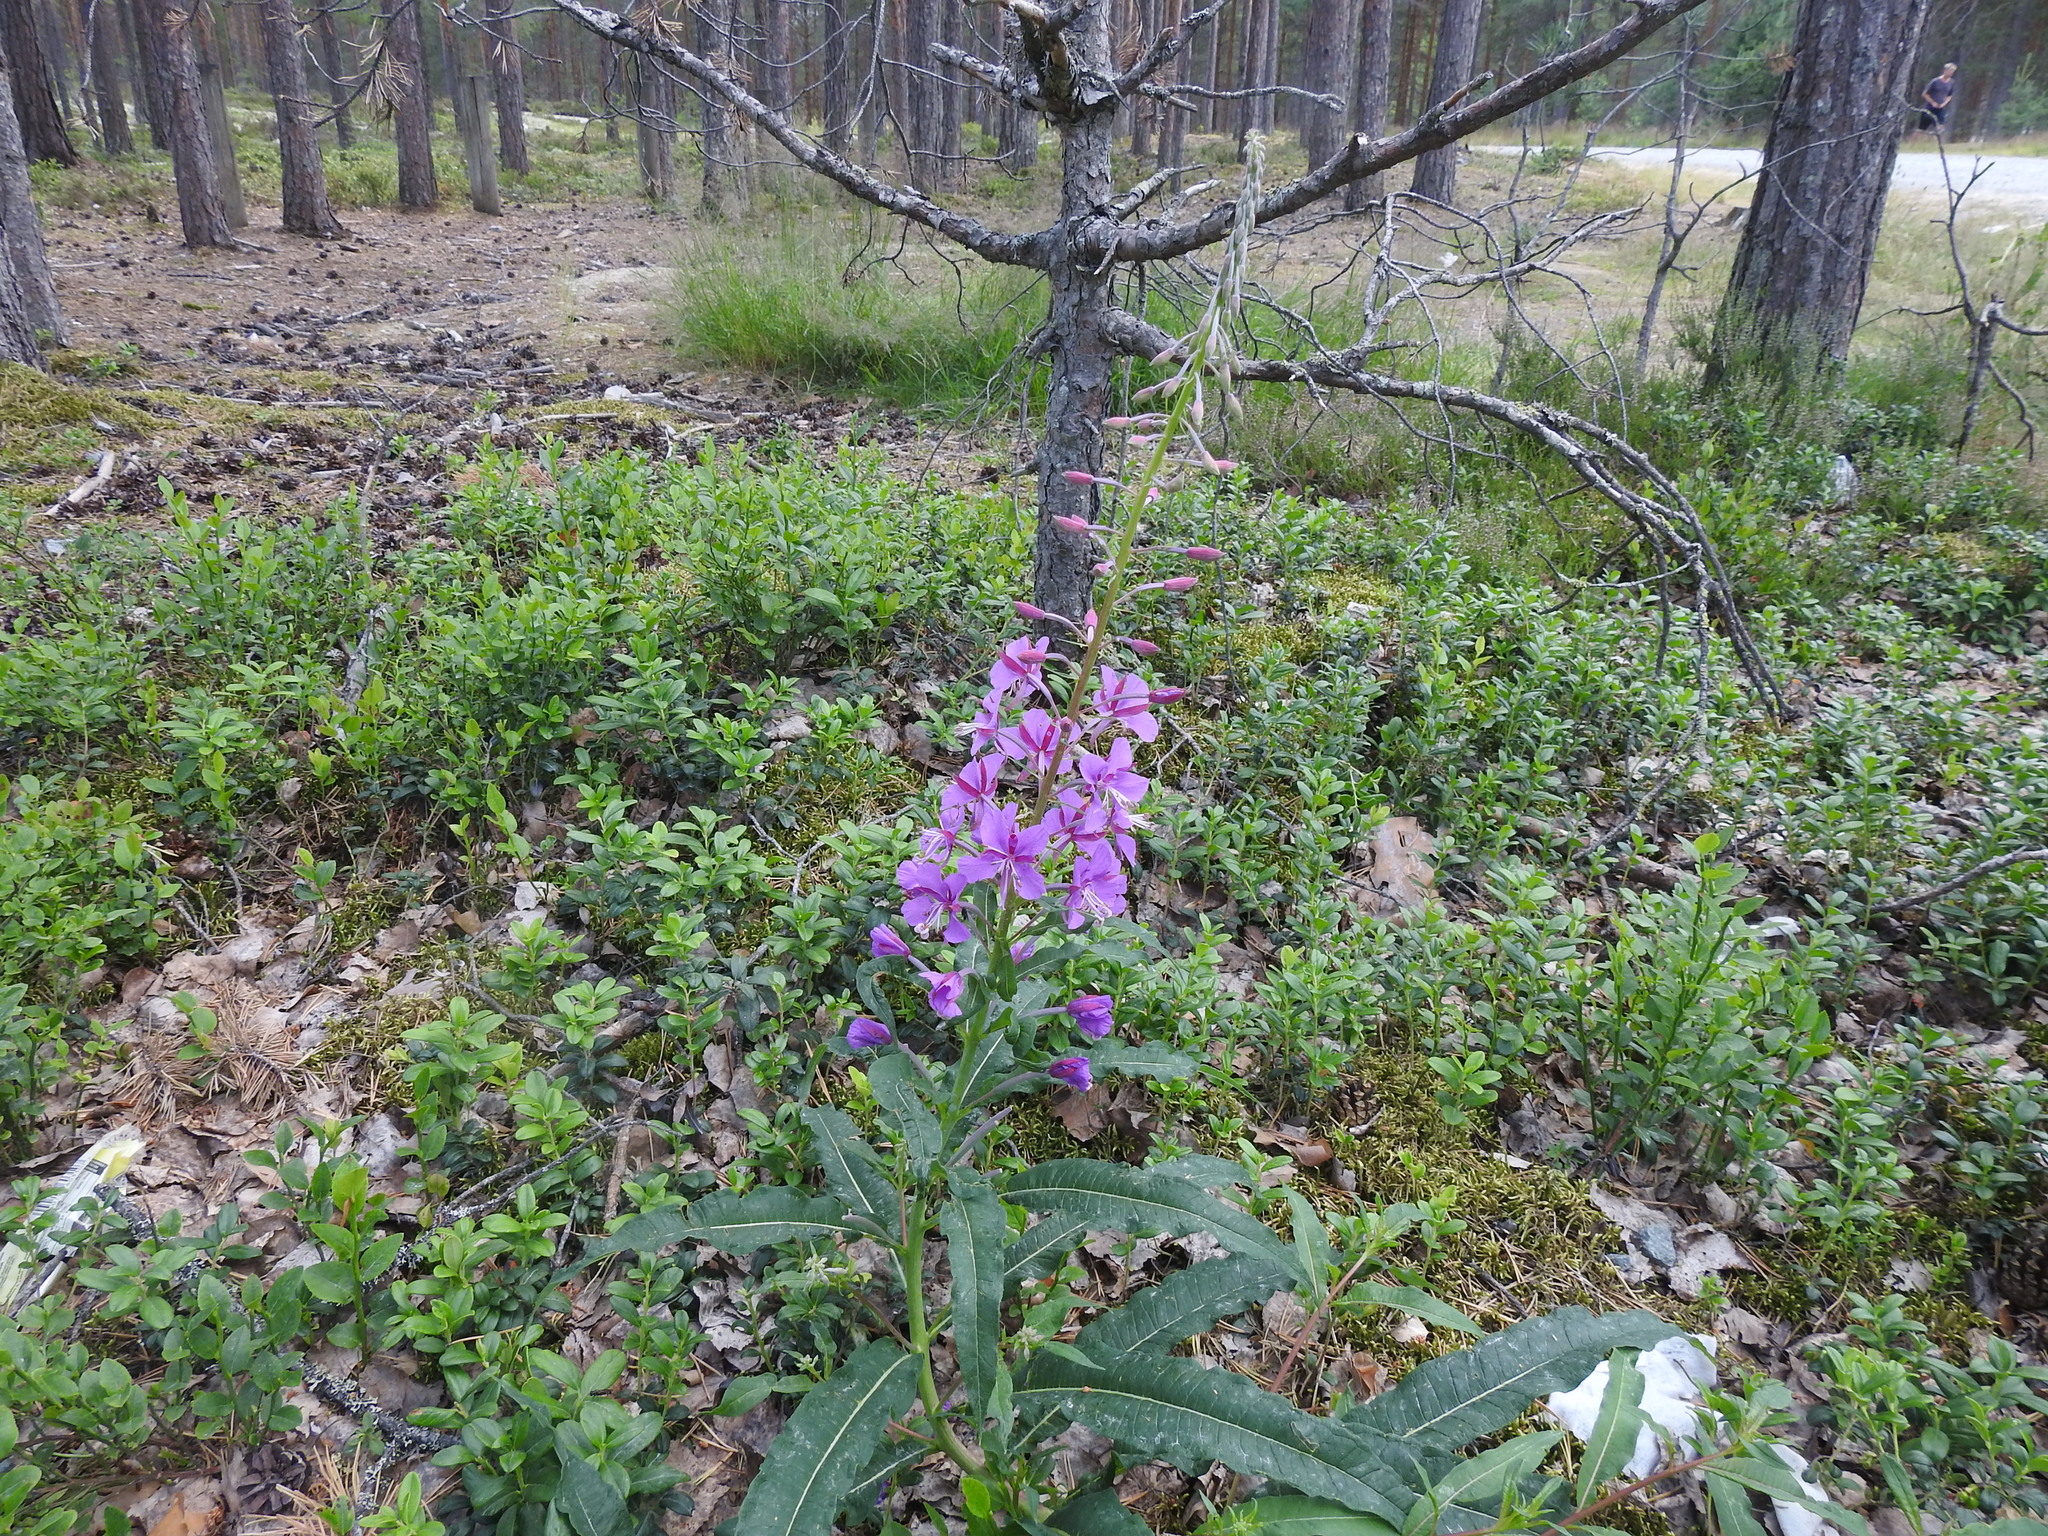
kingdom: Plantae
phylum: Tracheophyta
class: Magnoliopsida
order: Myrtales
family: Onagraceae
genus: Chamaenerion
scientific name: Chamaenerion angustifolium
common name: Fireweed
